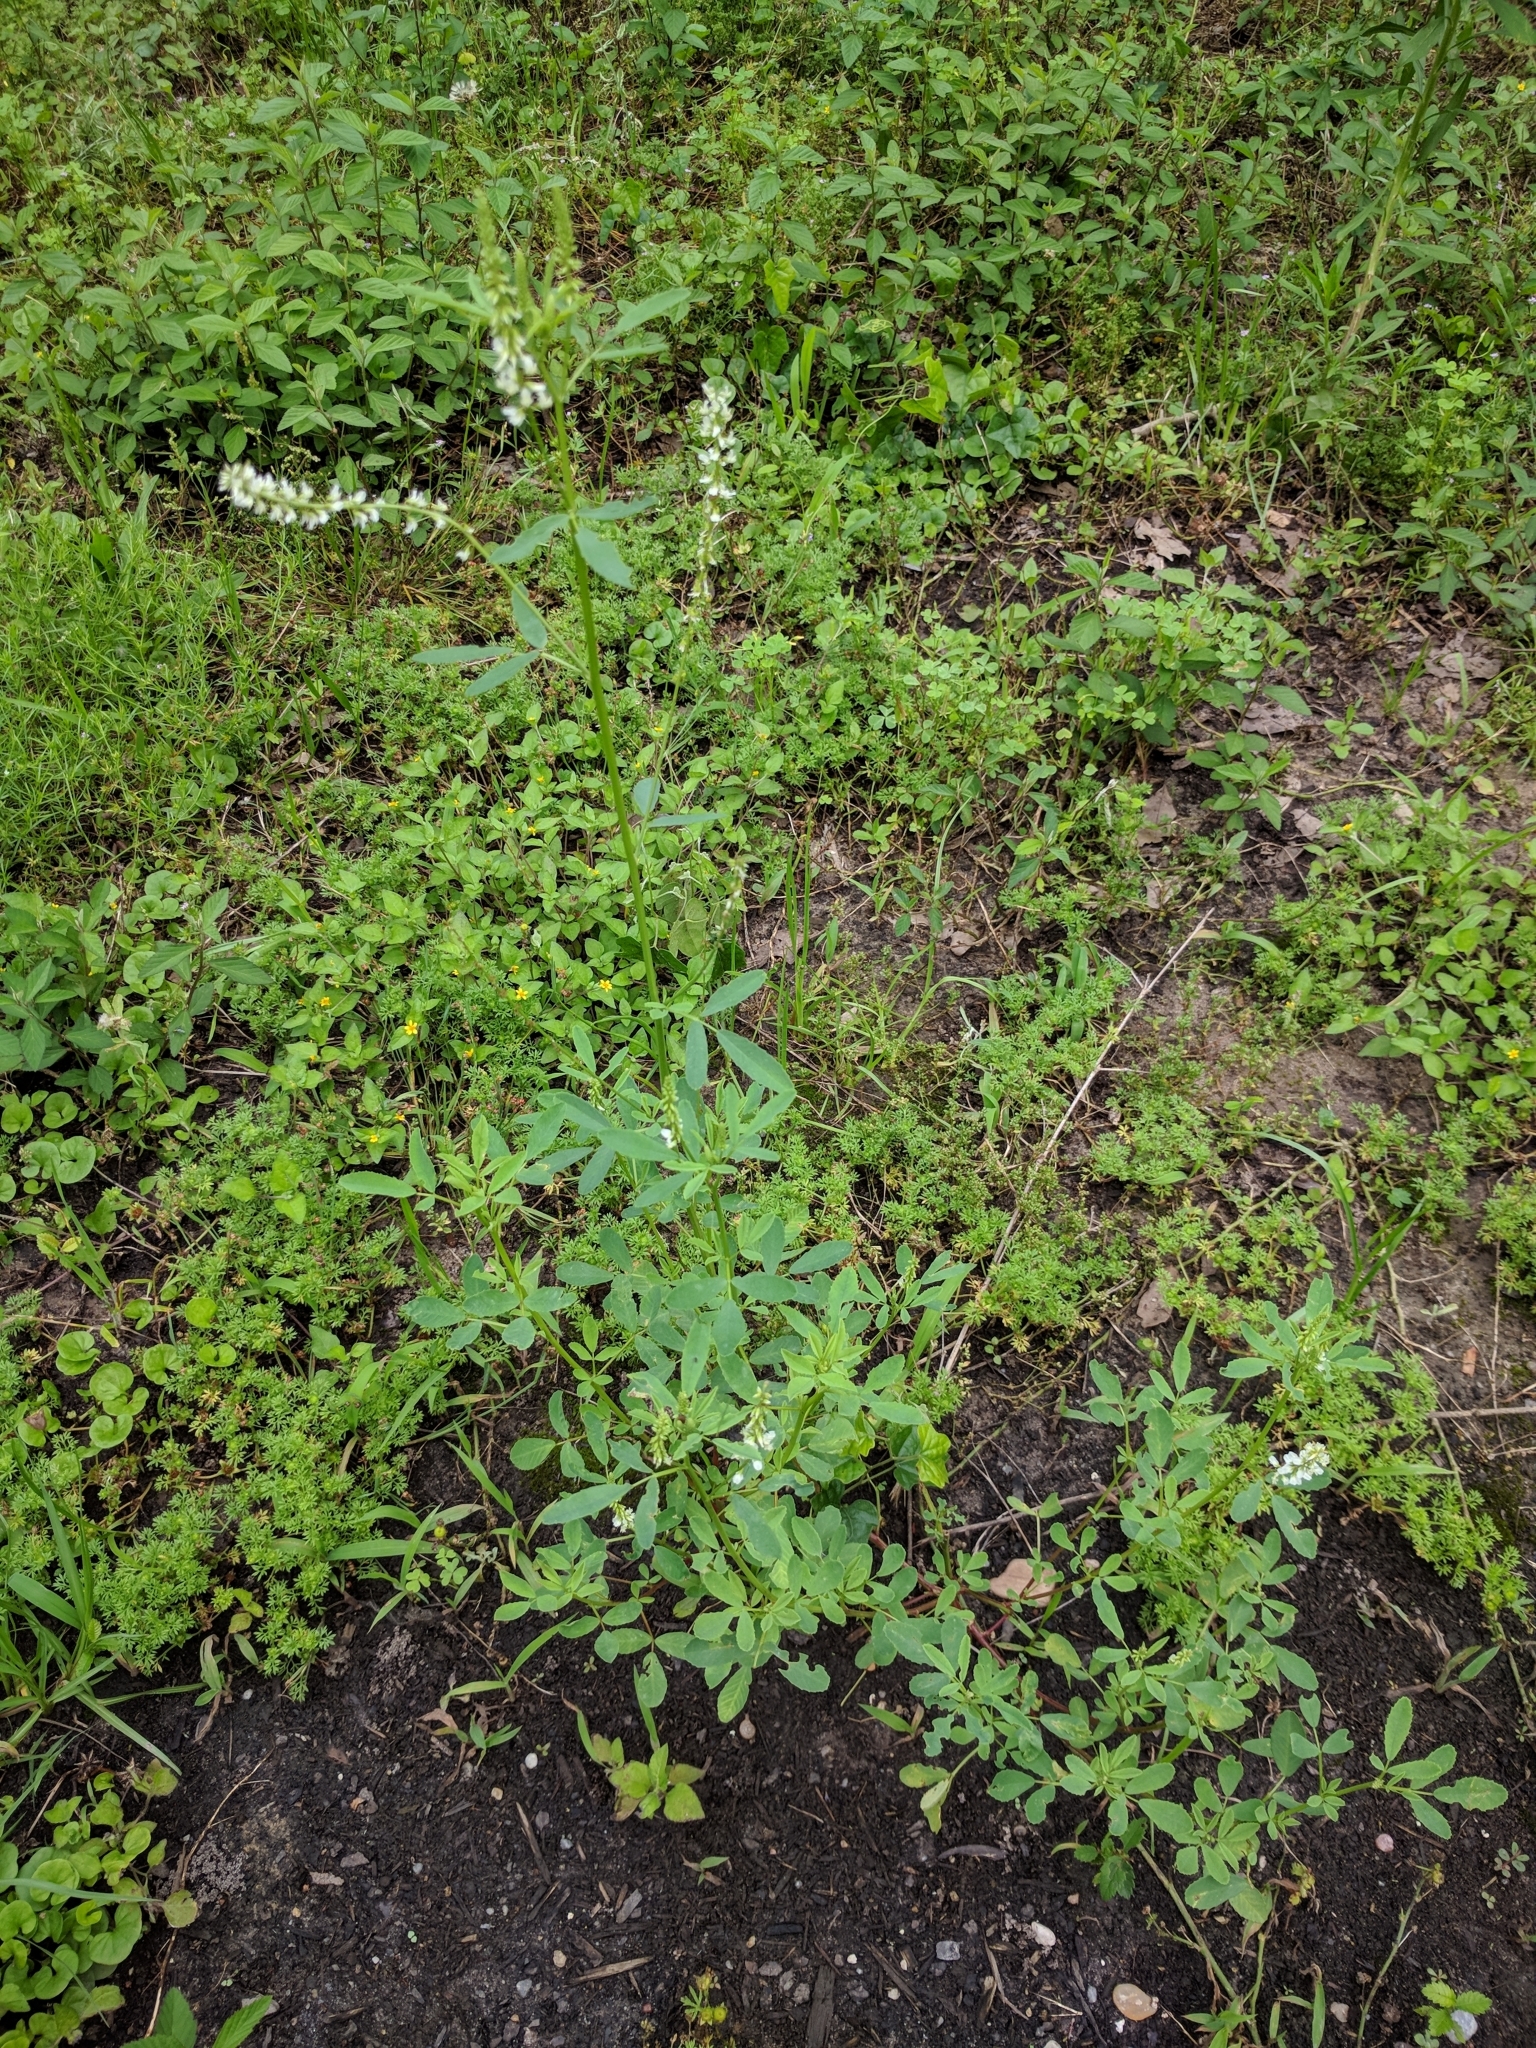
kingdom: Plantae
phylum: Tracheophyta
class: Magnoliopsida
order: Fabales
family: Fabaceae
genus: Melilotus
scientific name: Melilotus albus
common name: White melilot
